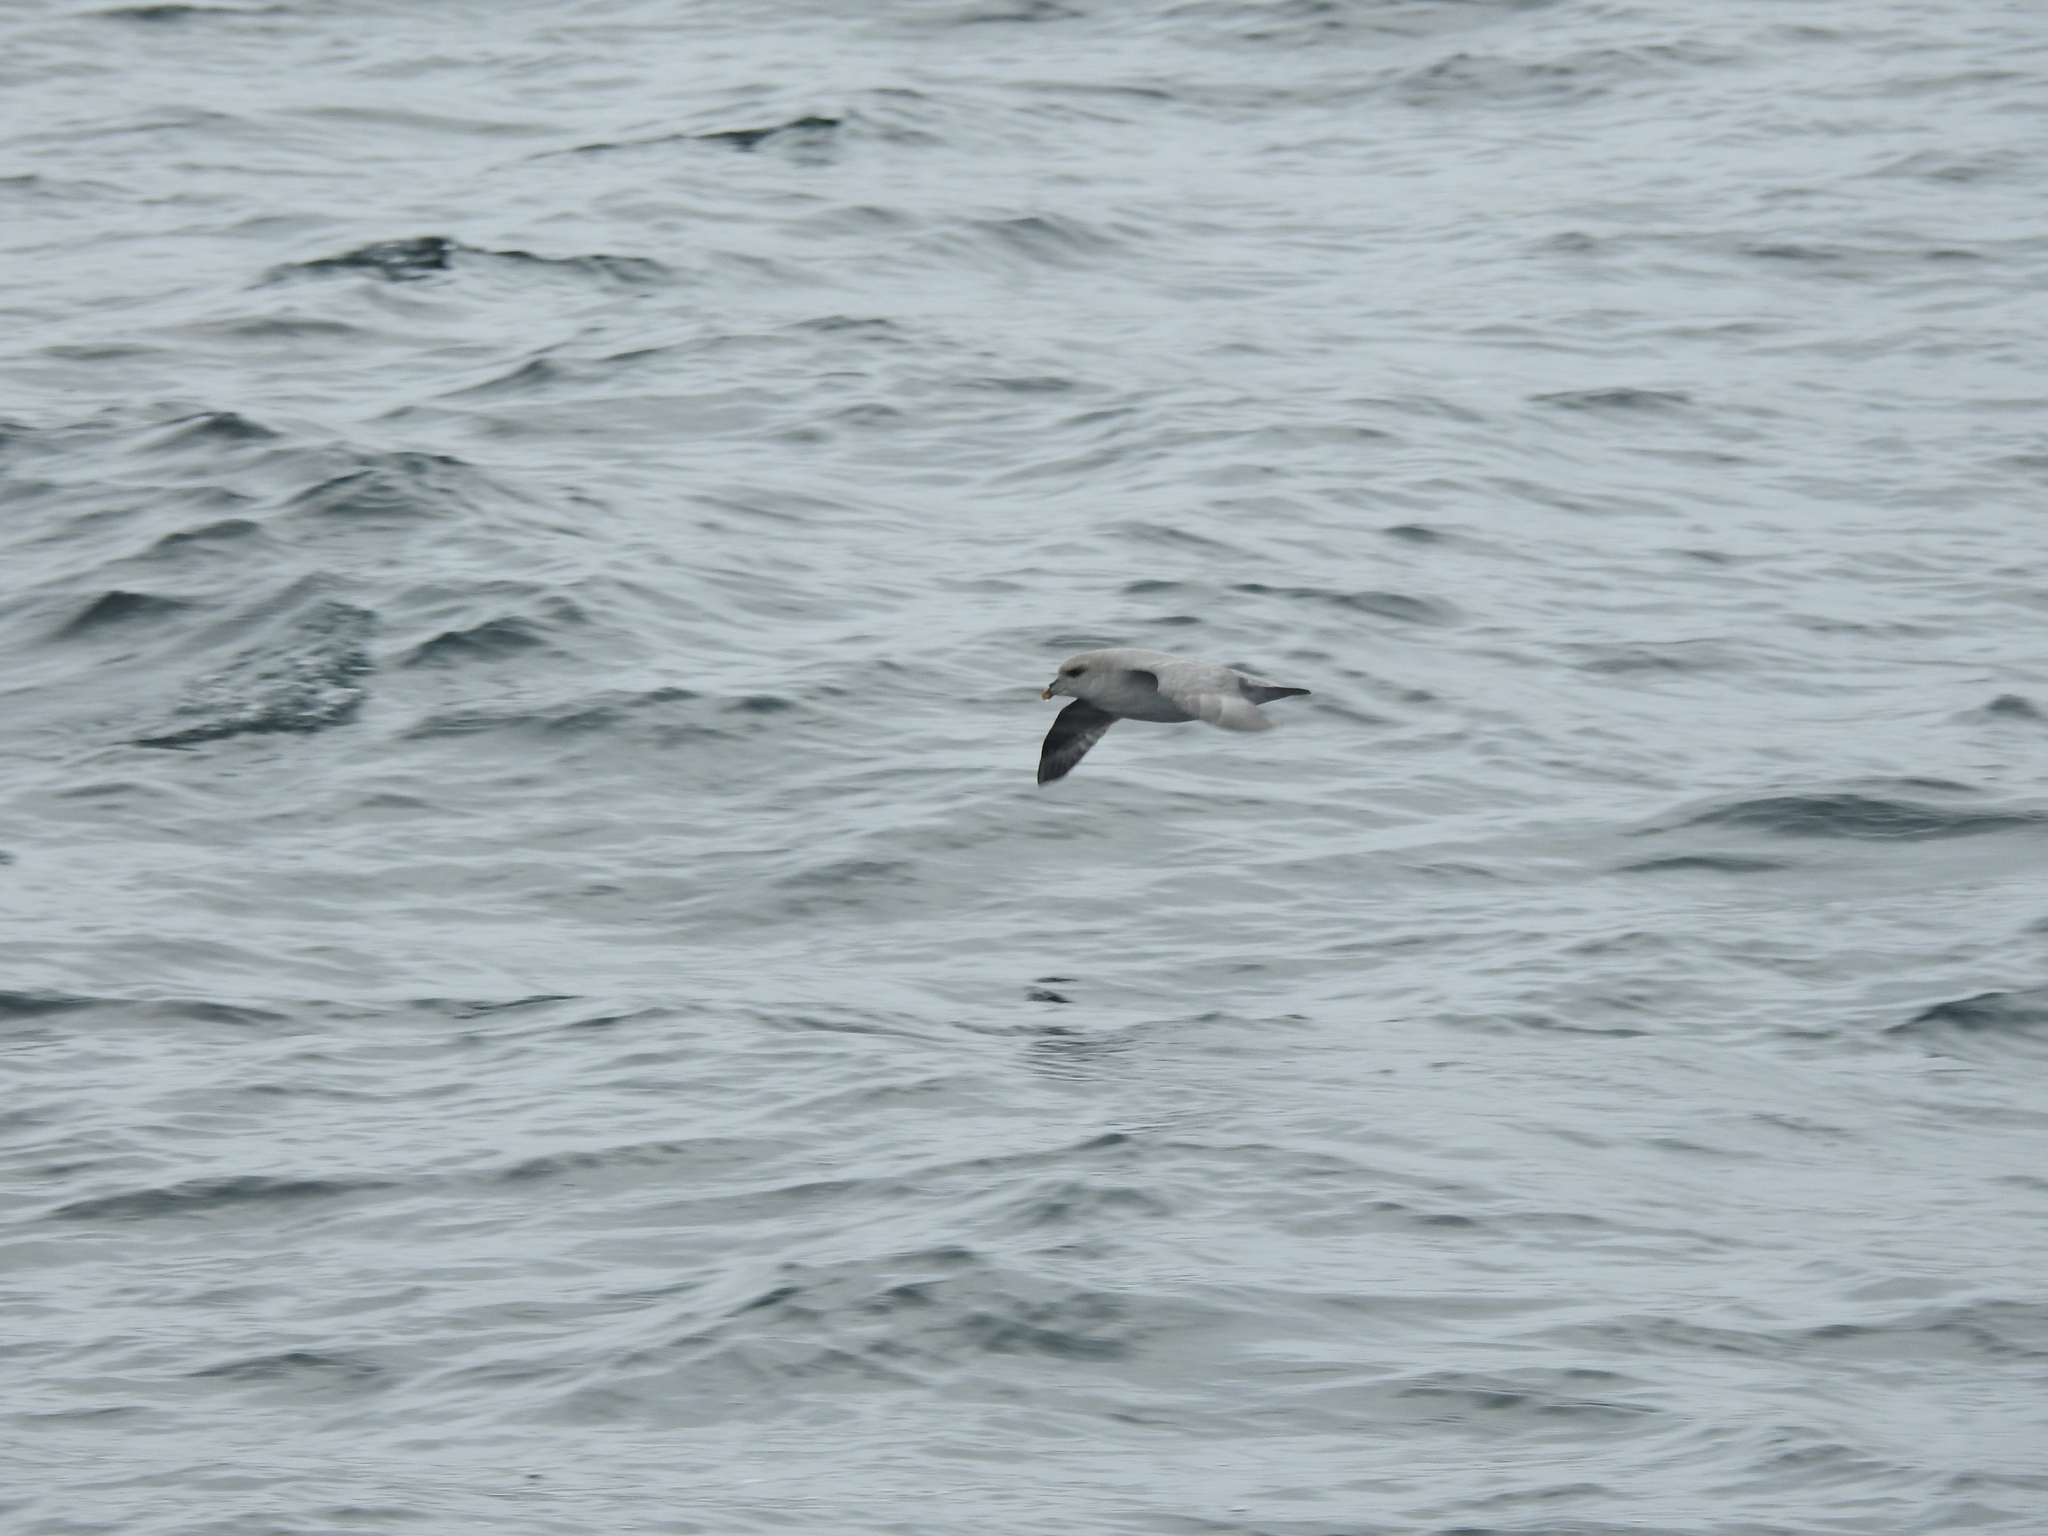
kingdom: Animalia
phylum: Chordata
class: Aves
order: Procellariiformes
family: Procellariidae
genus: Fulmarus
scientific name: Fulmarus glacialis
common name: Northern fulmar
